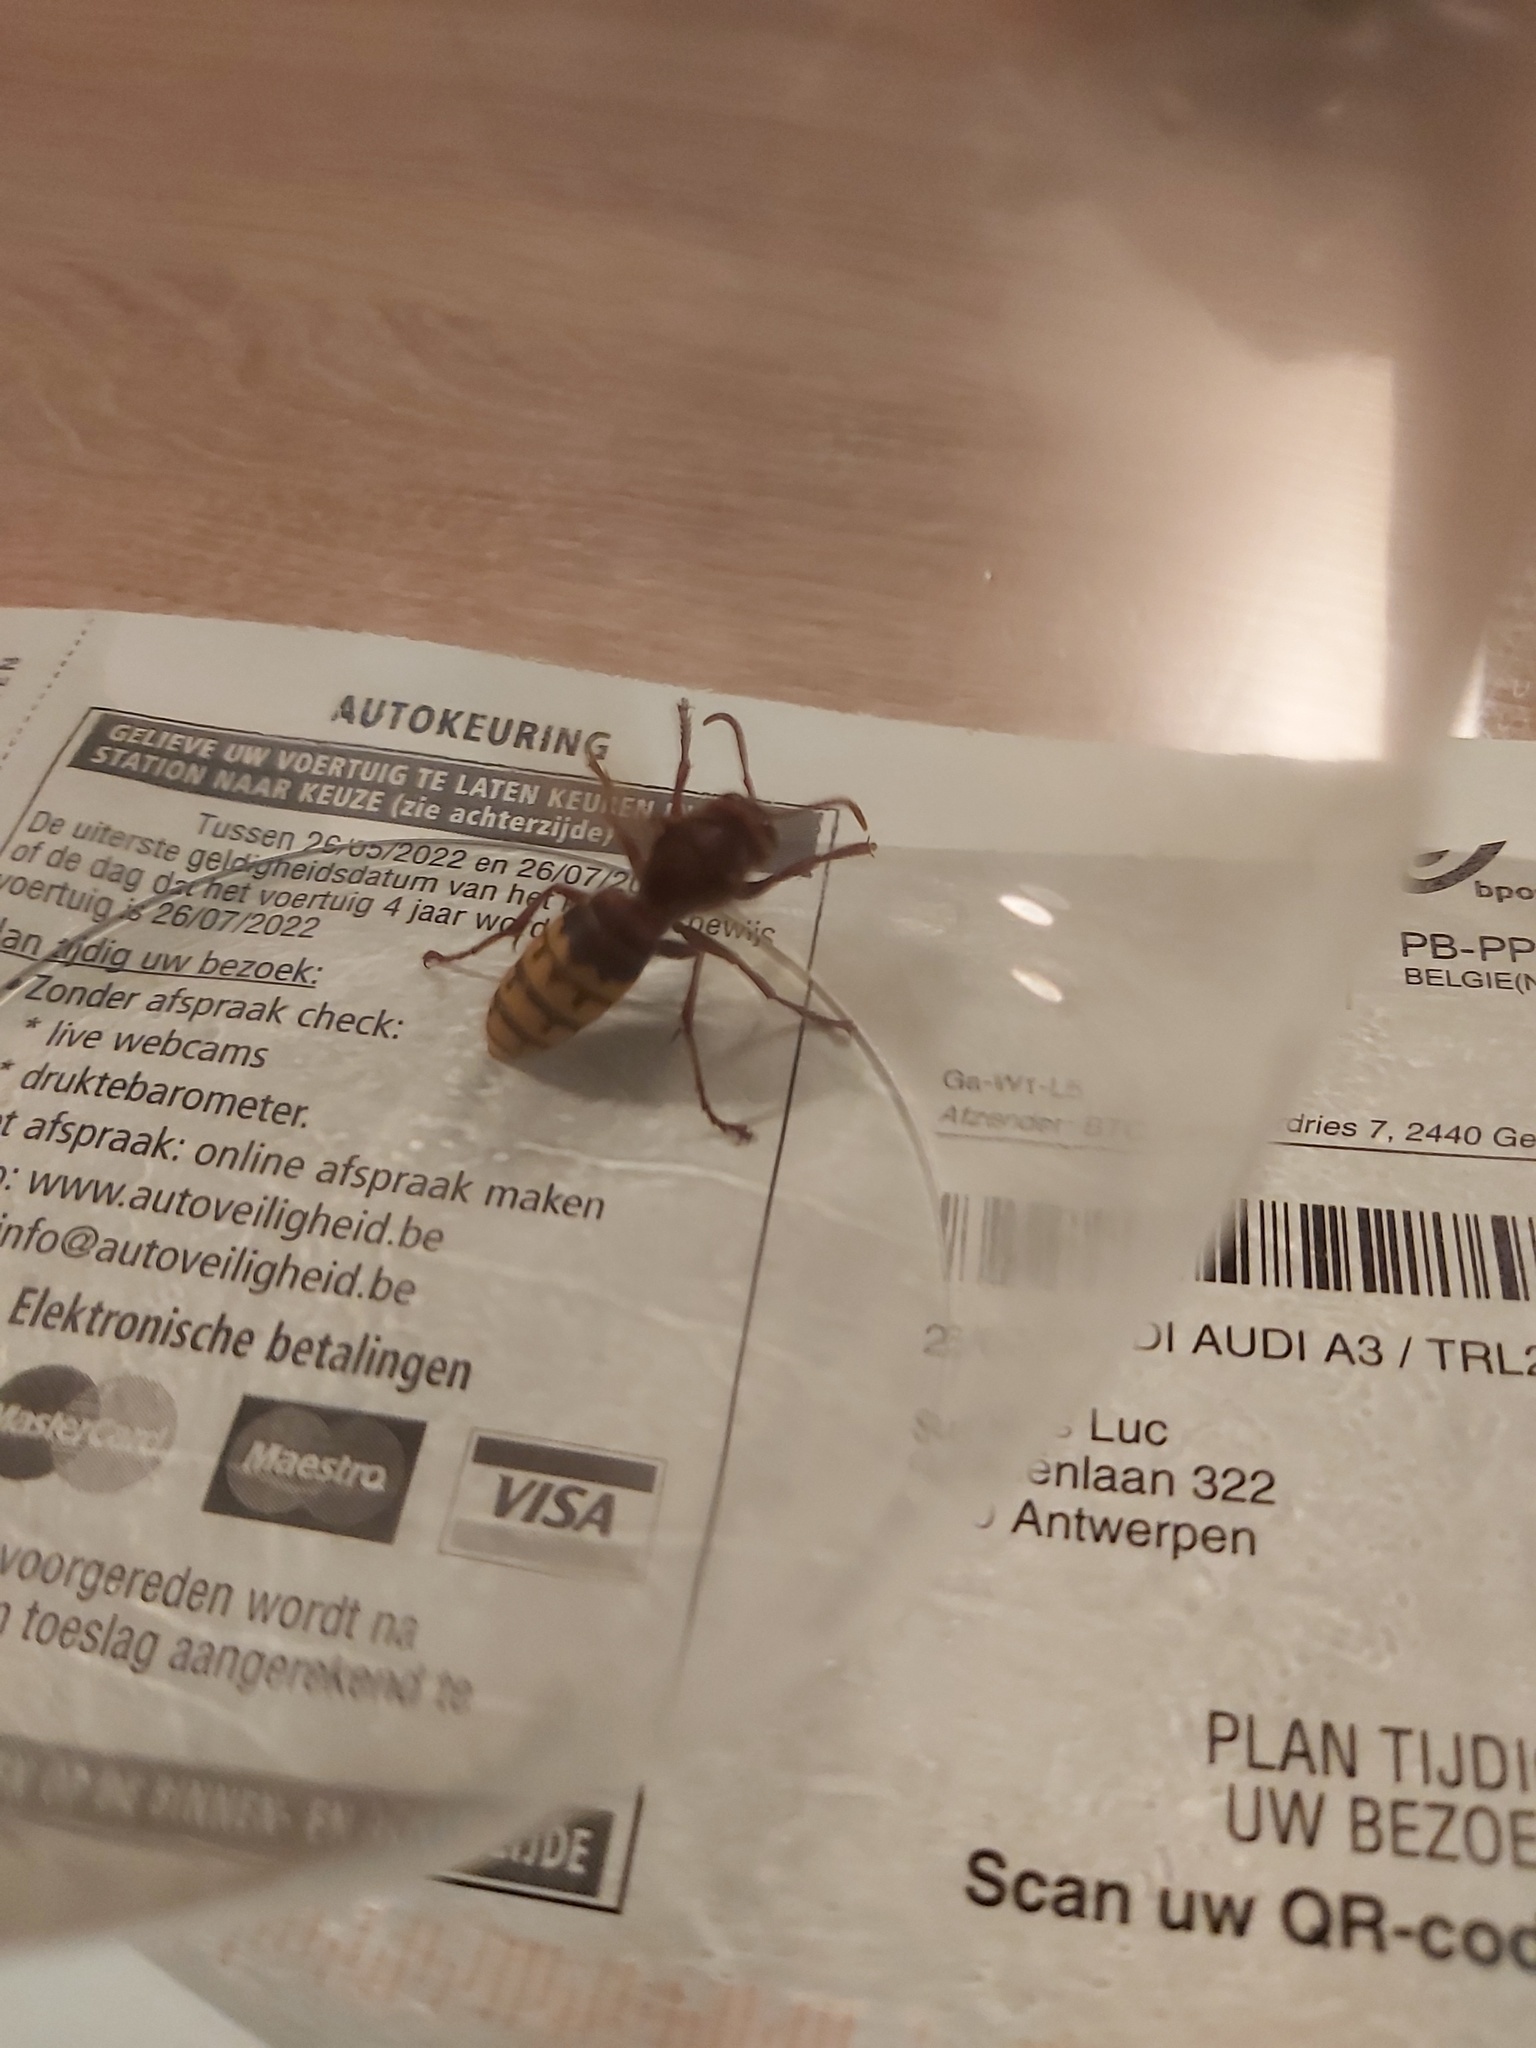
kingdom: Animalia
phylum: Arthropoda
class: Insecta
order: Hymenoptera
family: Vespidae
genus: Vespa
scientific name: Vespa crabro
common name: Hornet
